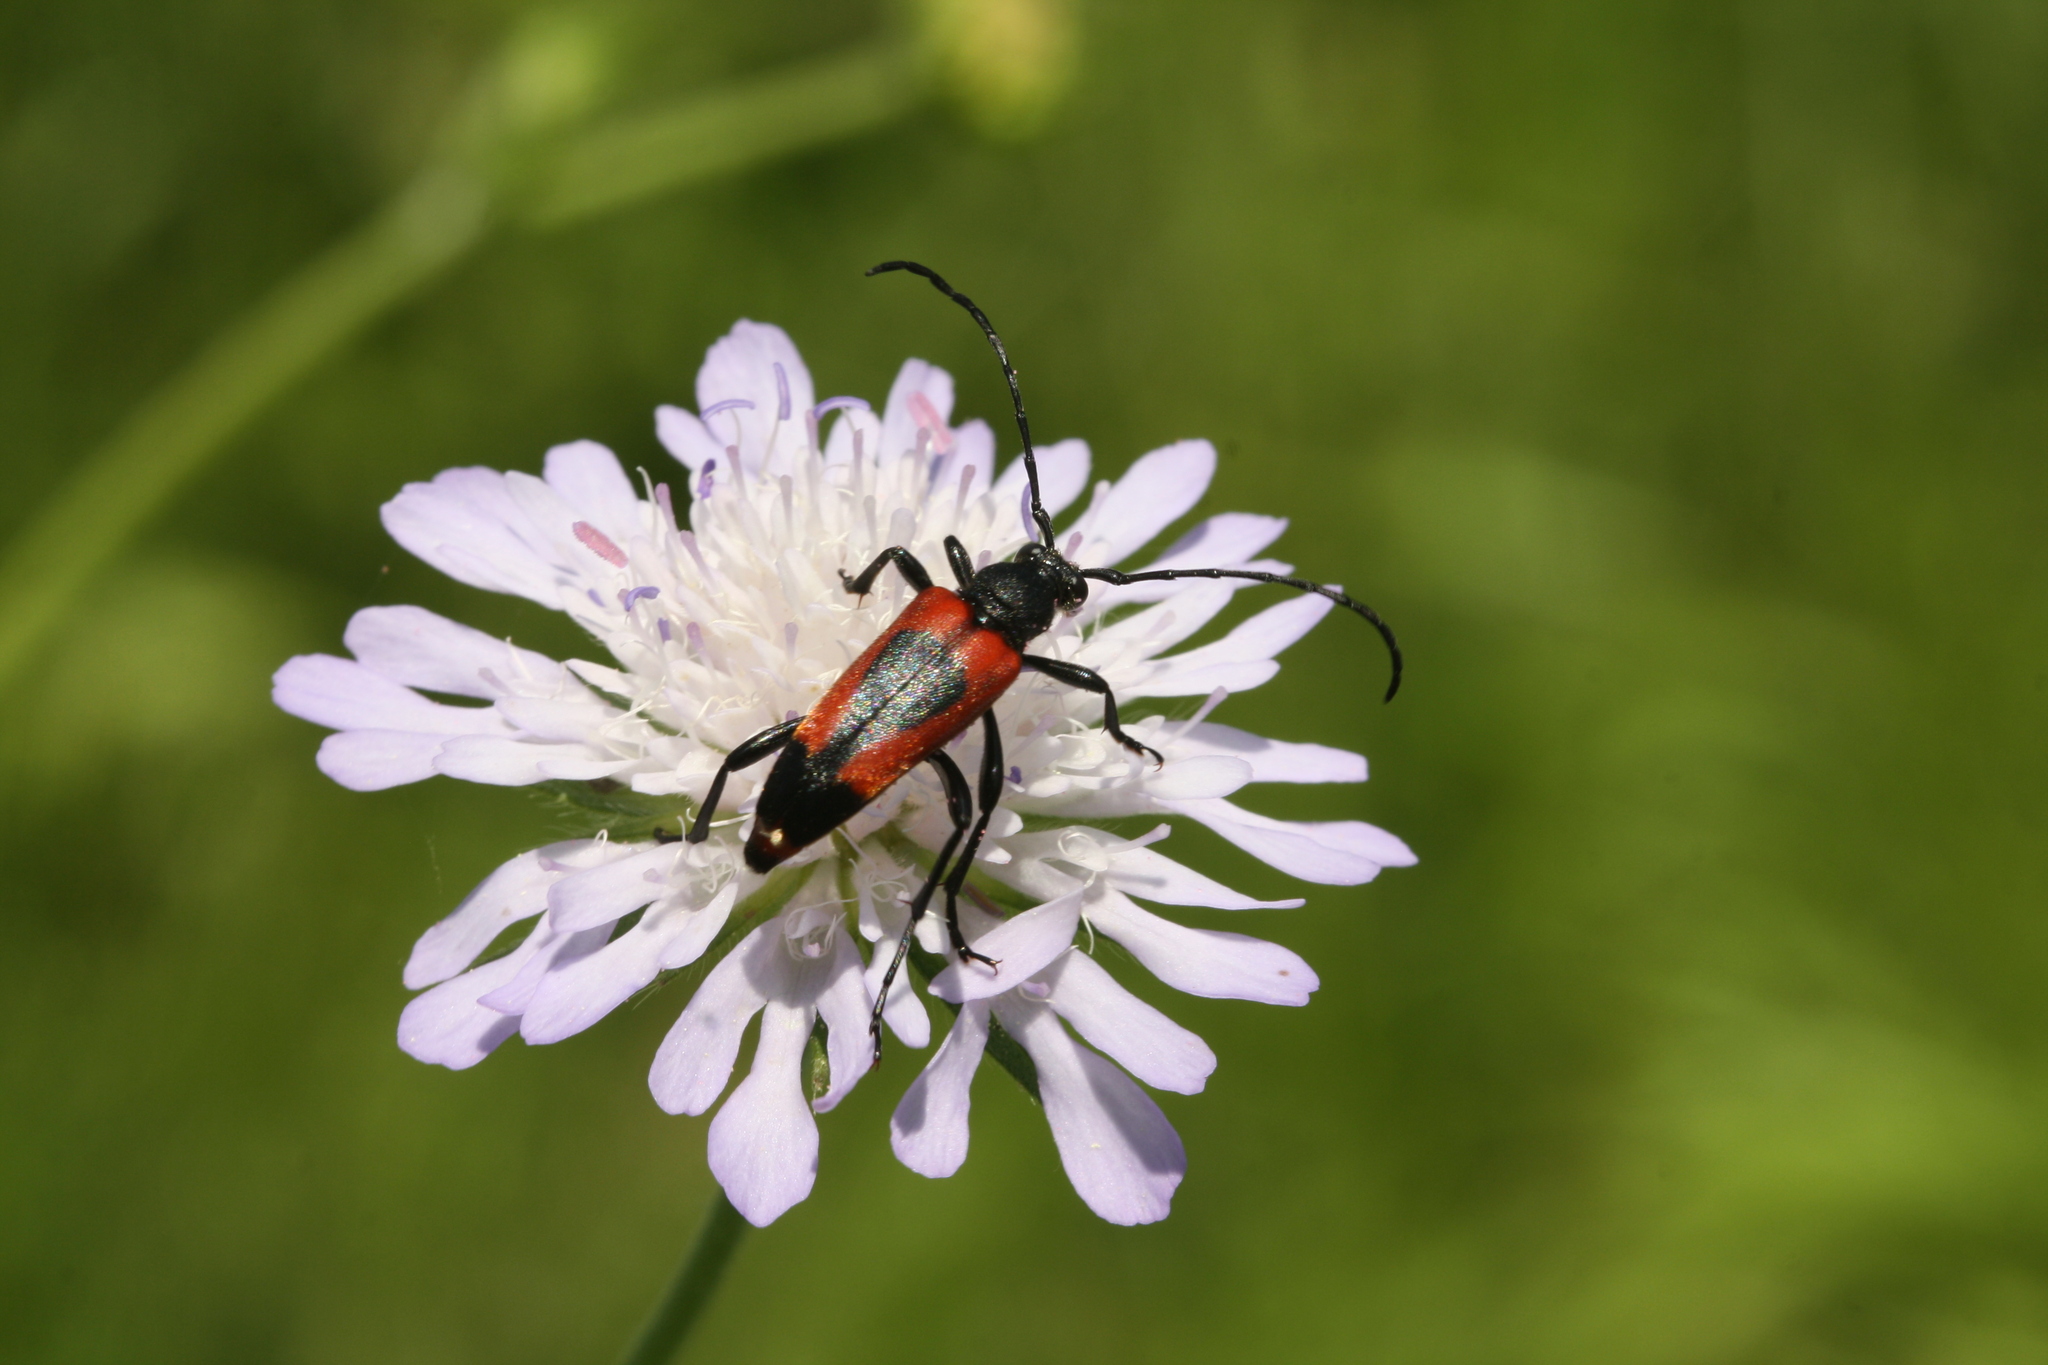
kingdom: Animalia
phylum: Arthropoda
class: Insecta
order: Coleoptera
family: Cerambycidae
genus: Stictoleptura
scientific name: Stictoleptura cordigera
